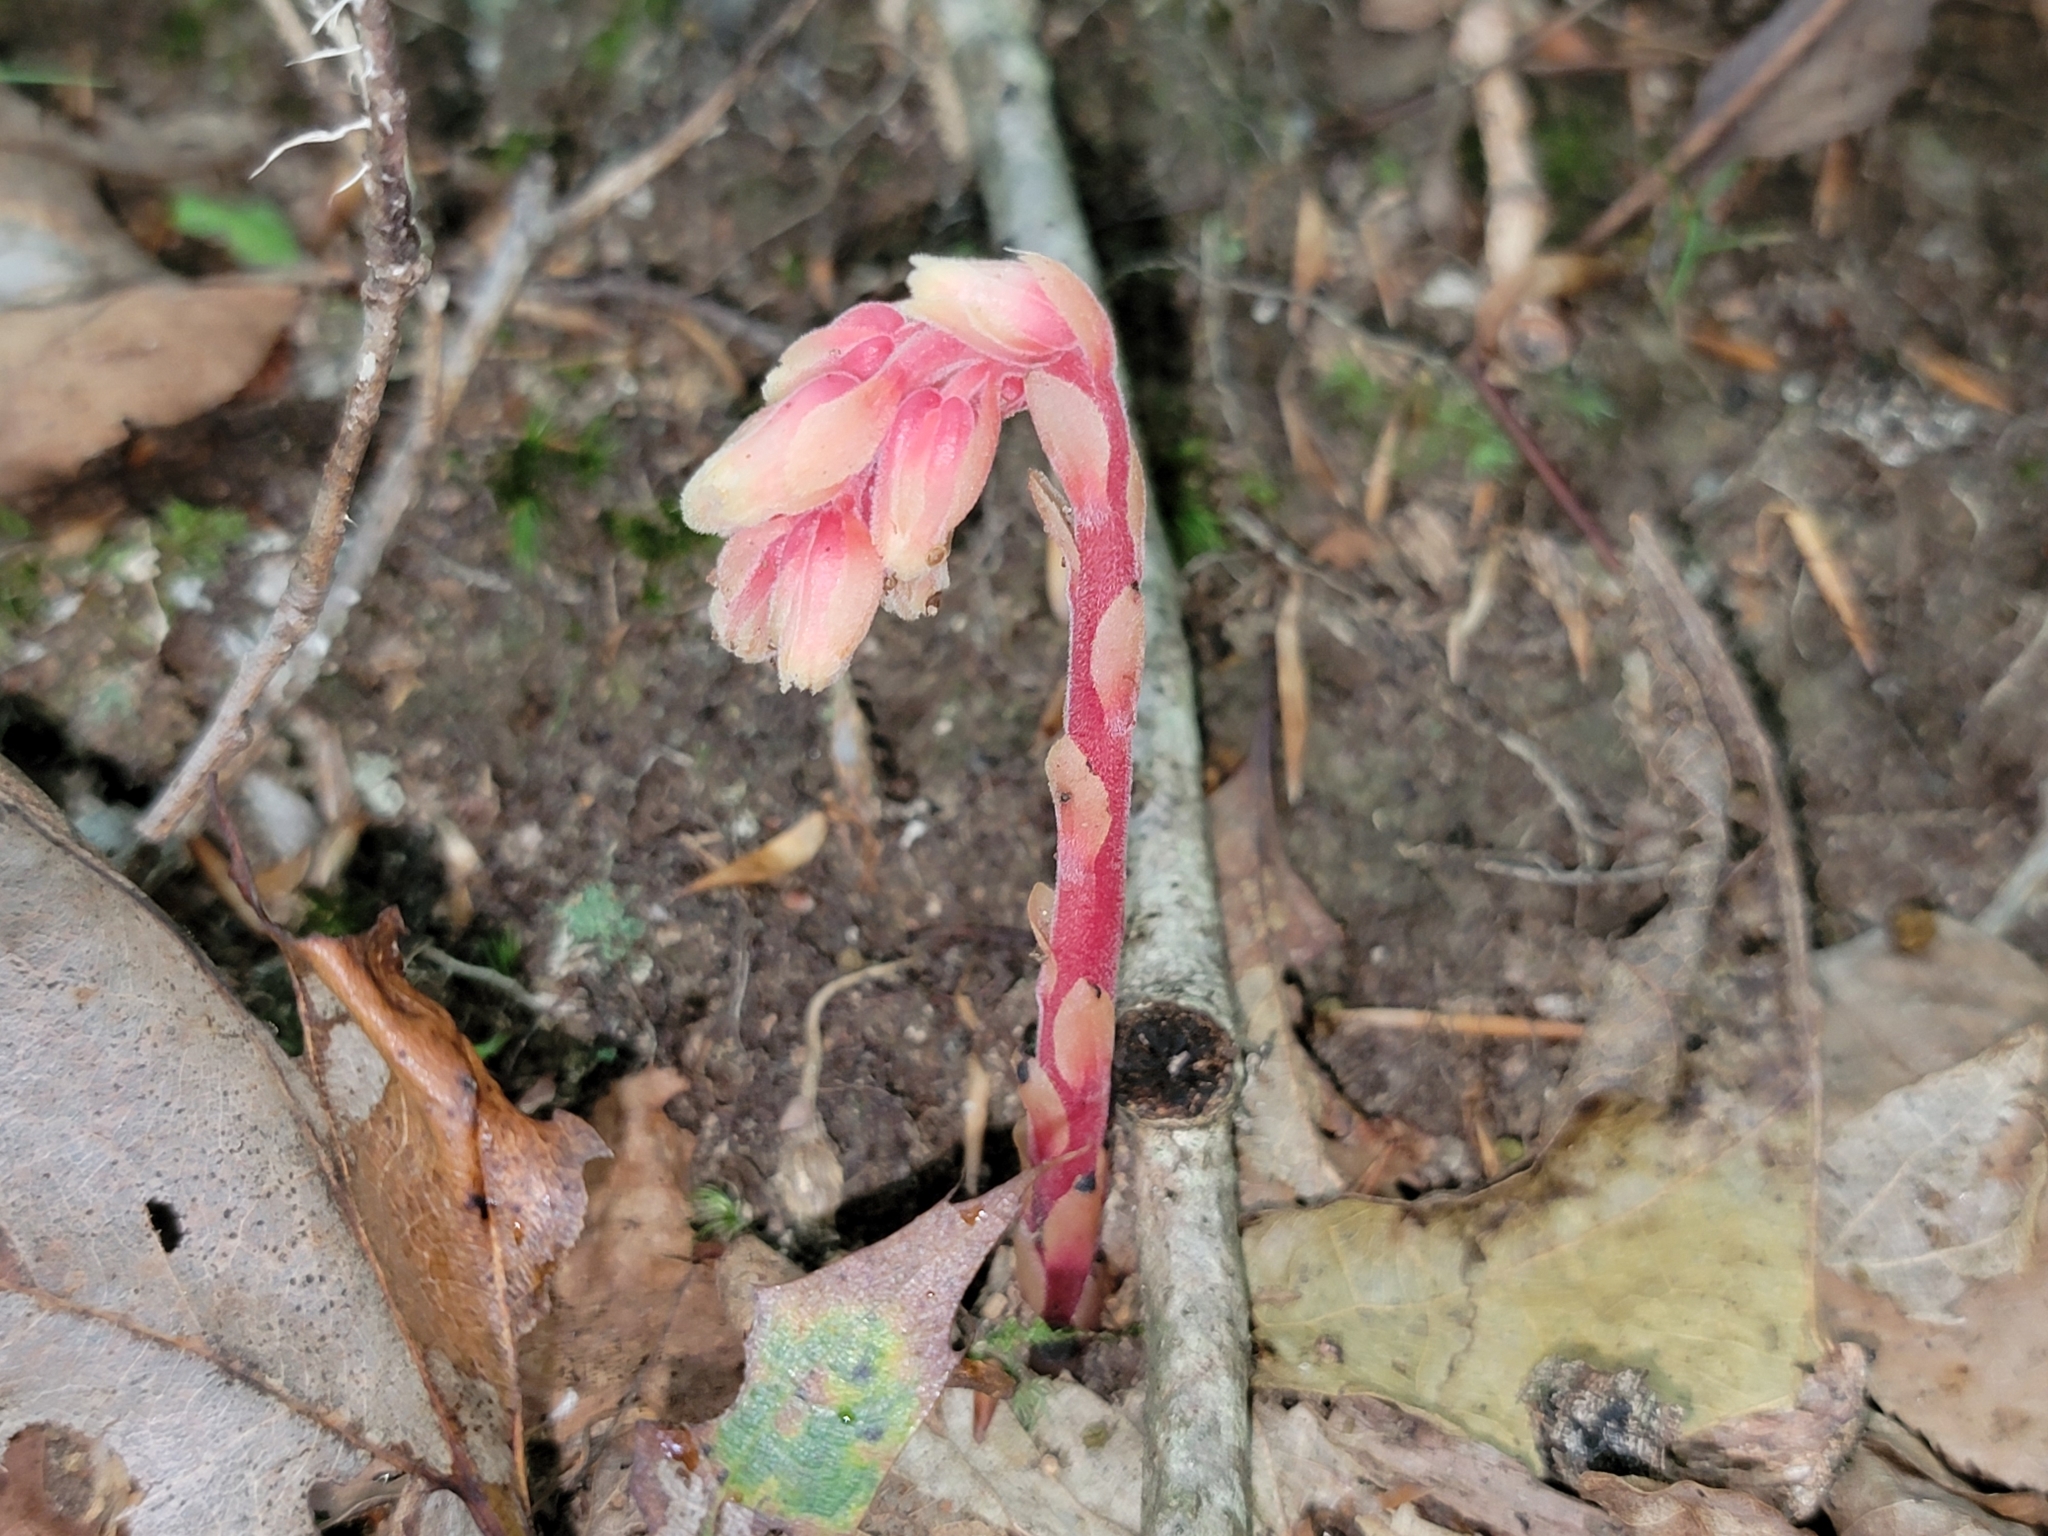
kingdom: Plantae
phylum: Tracheophyta
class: Magnoliopsida
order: Ericales
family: Ericaceae
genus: Hypopitys
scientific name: Hypopitys monotropa
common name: Yellow bird's-nest
